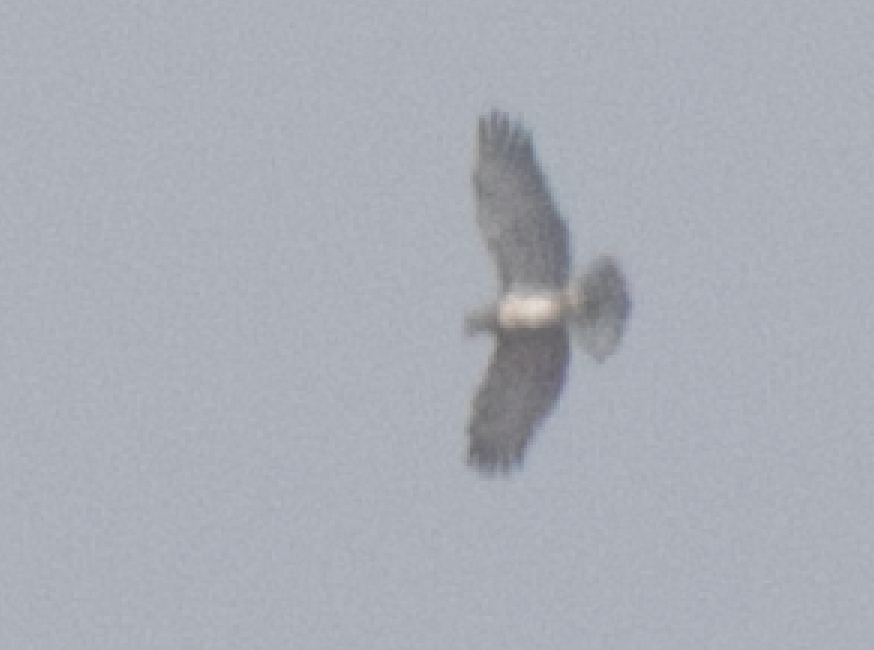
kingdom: Animalia
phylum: Chordata
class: Aves
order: Accipitriformes
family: Accipitridae
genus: Circaetus
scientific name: Circaetus gallicus
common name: Short-toed snake eagle
